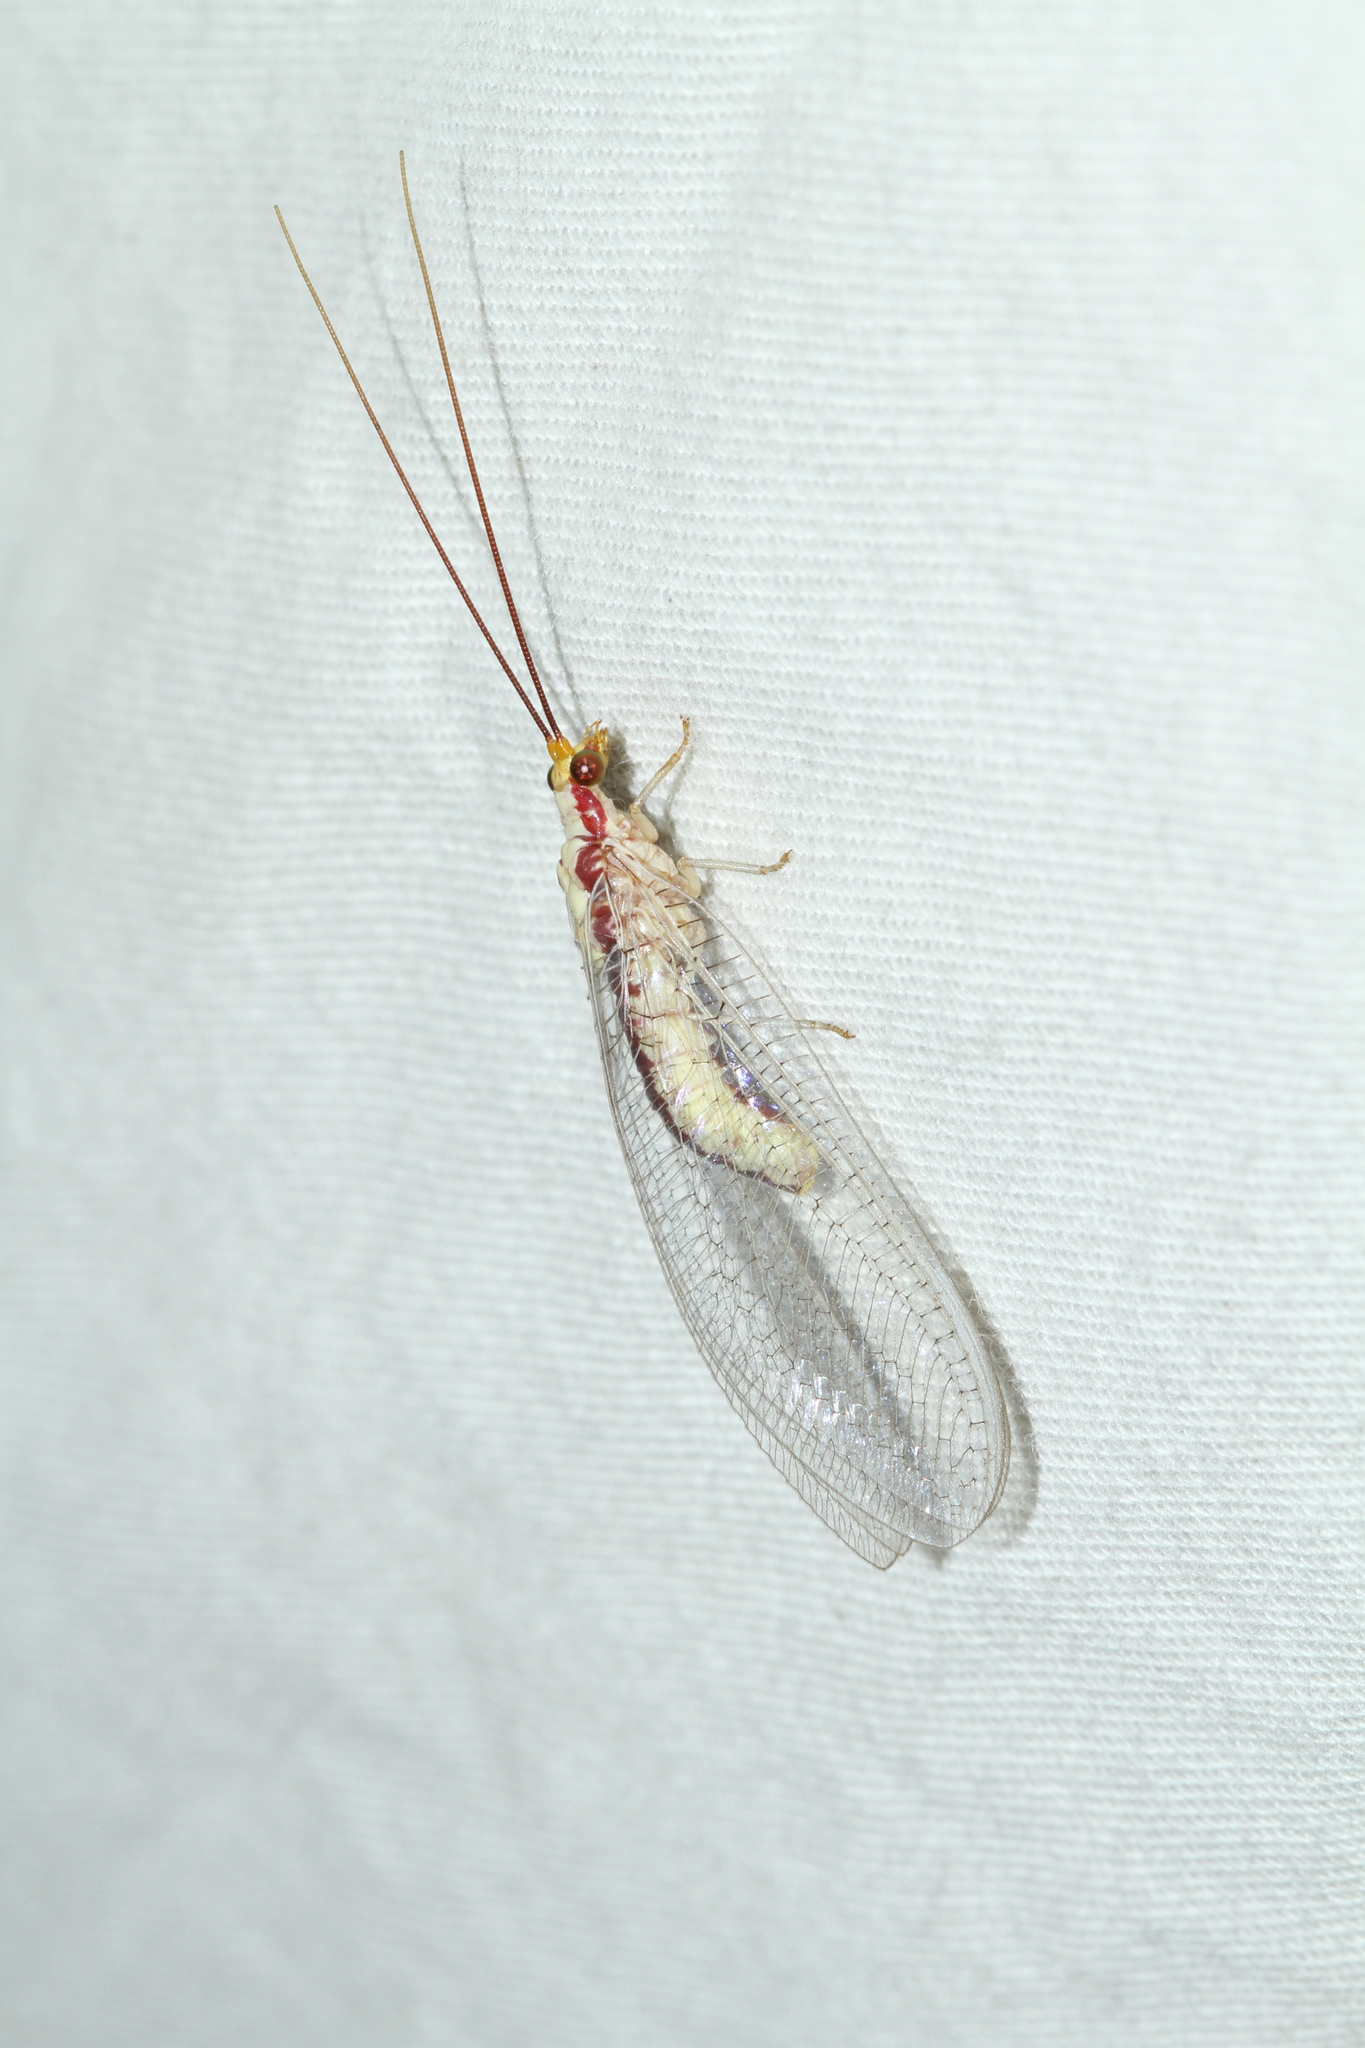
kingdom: Animalia
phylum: Arthropoda
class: Insecta
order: Neuroptera
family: Chrysopidae
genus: Italochrysa
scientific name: Italochrysa italica
